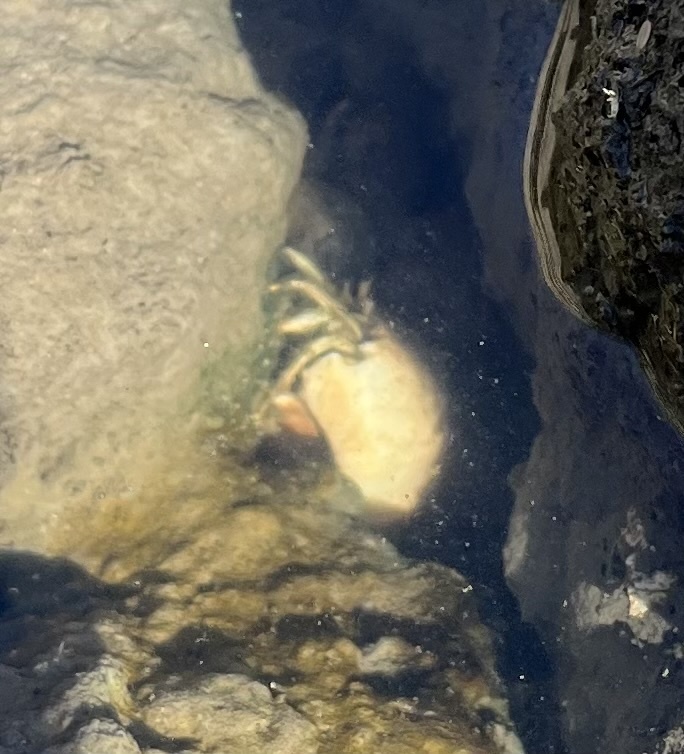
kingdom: Animalia
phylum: Arthropoda
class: Malacostraca
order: Decapoda
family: Diogenidae
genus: Clibanarius
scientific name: Clibanarius vittatus
